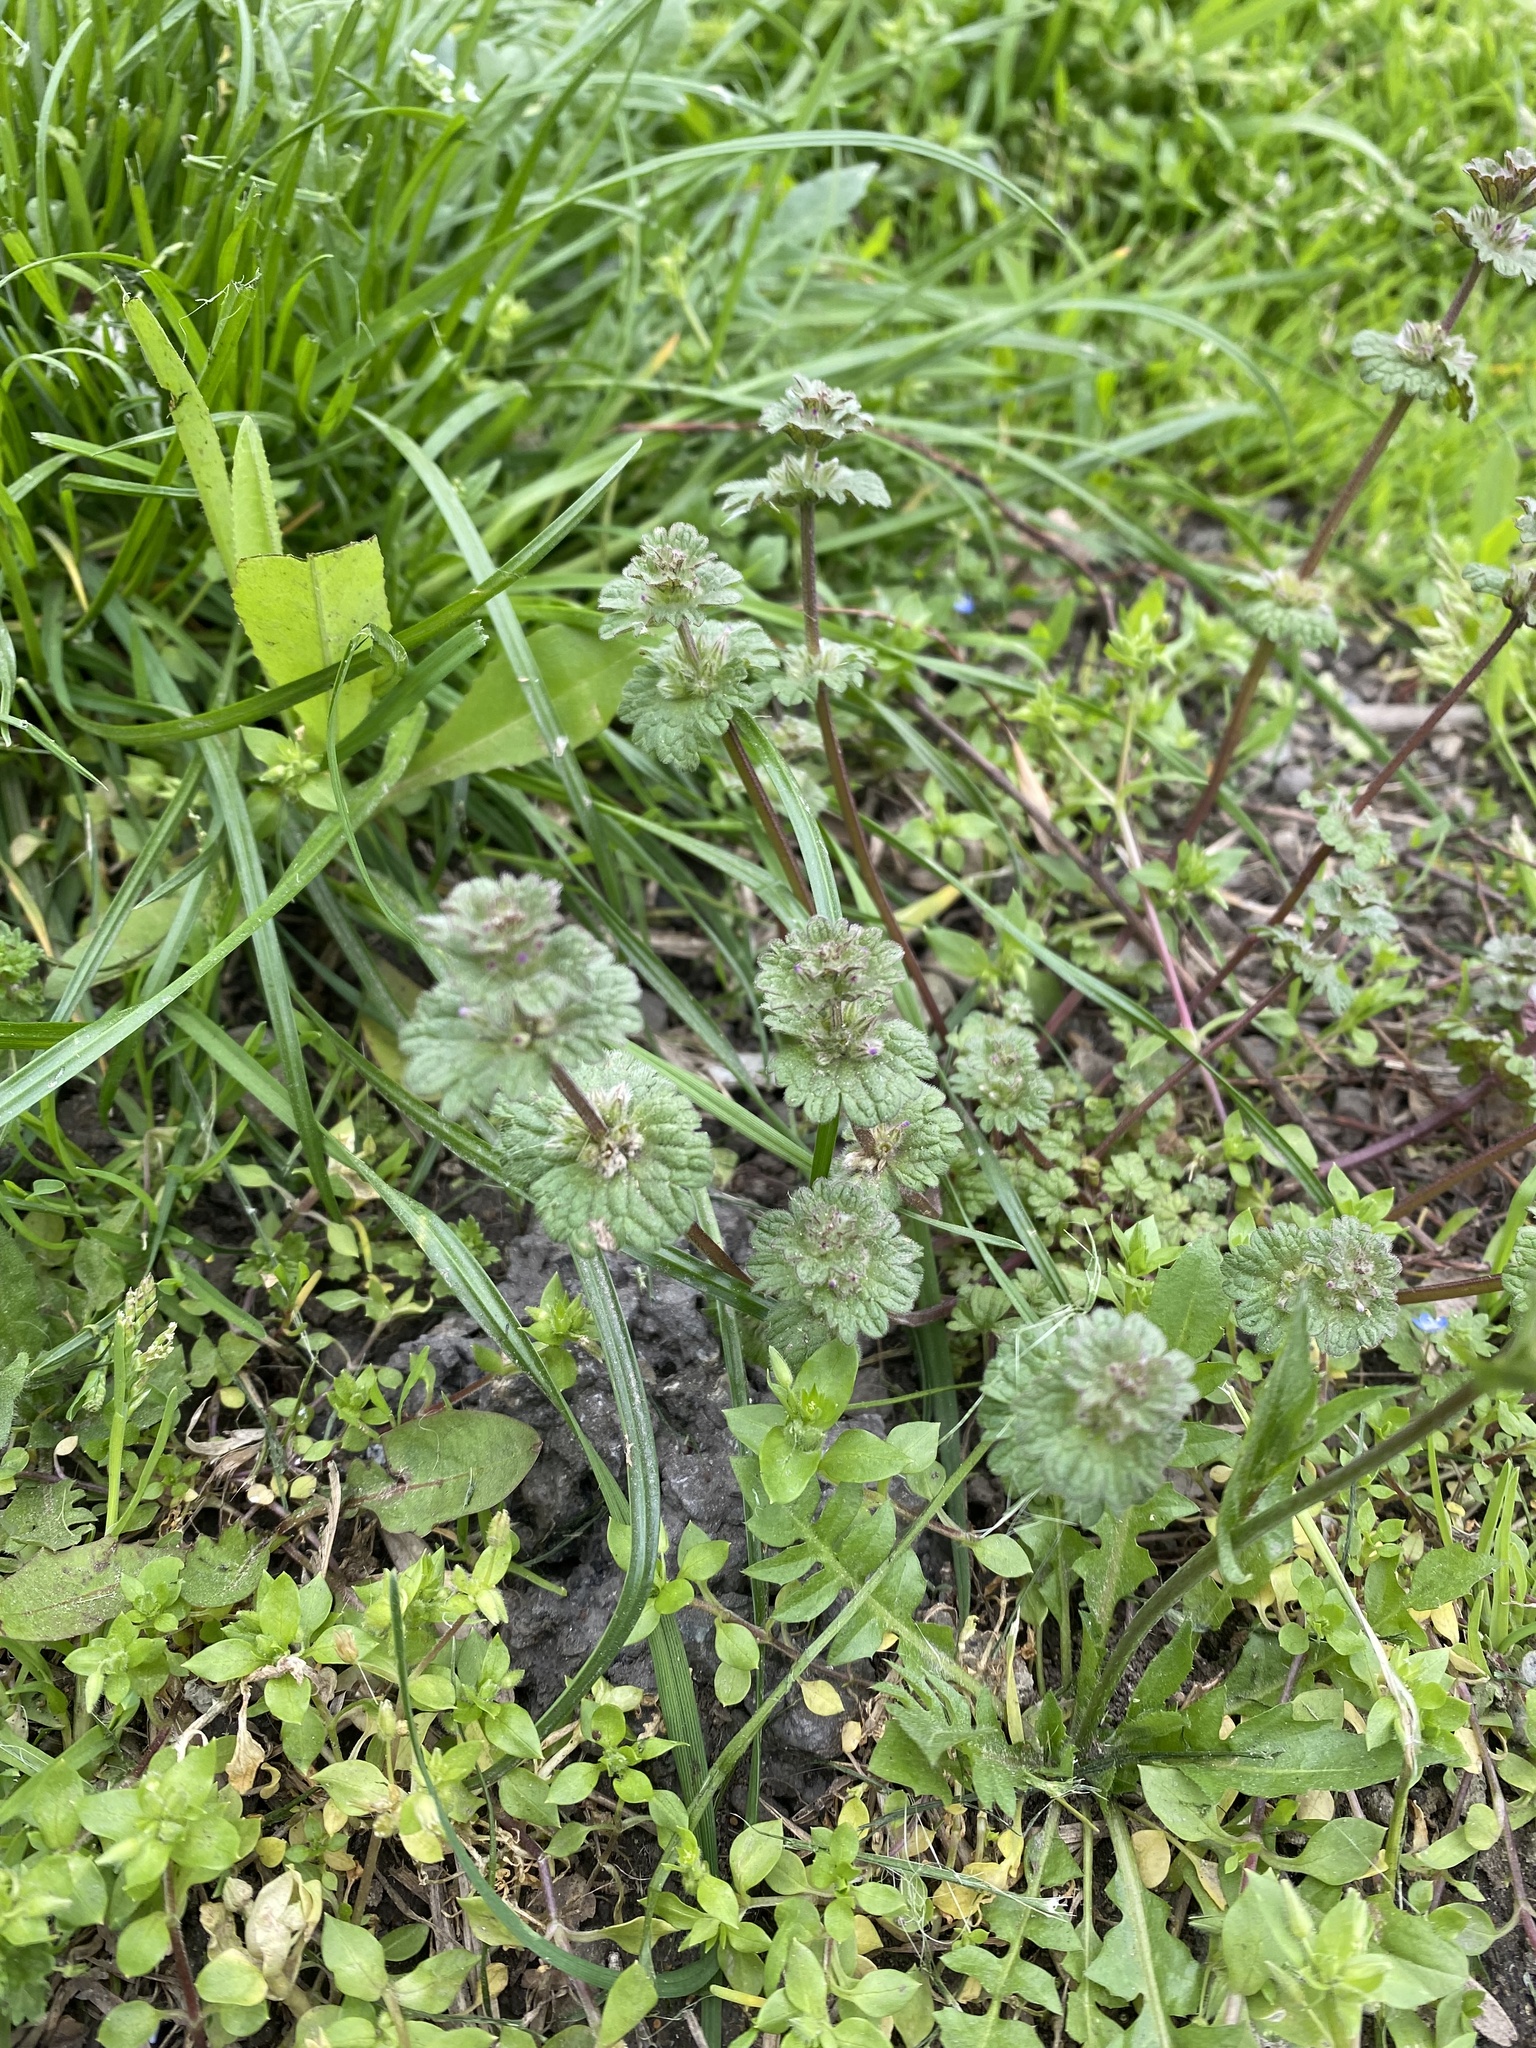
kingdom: Plantae
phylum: Tracheophyta
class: Magnoliopsida
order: Lamiales
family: Lamiaceae
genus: Lamium
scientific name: Lamium amplexicaule
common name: Henbit dead-nettle
